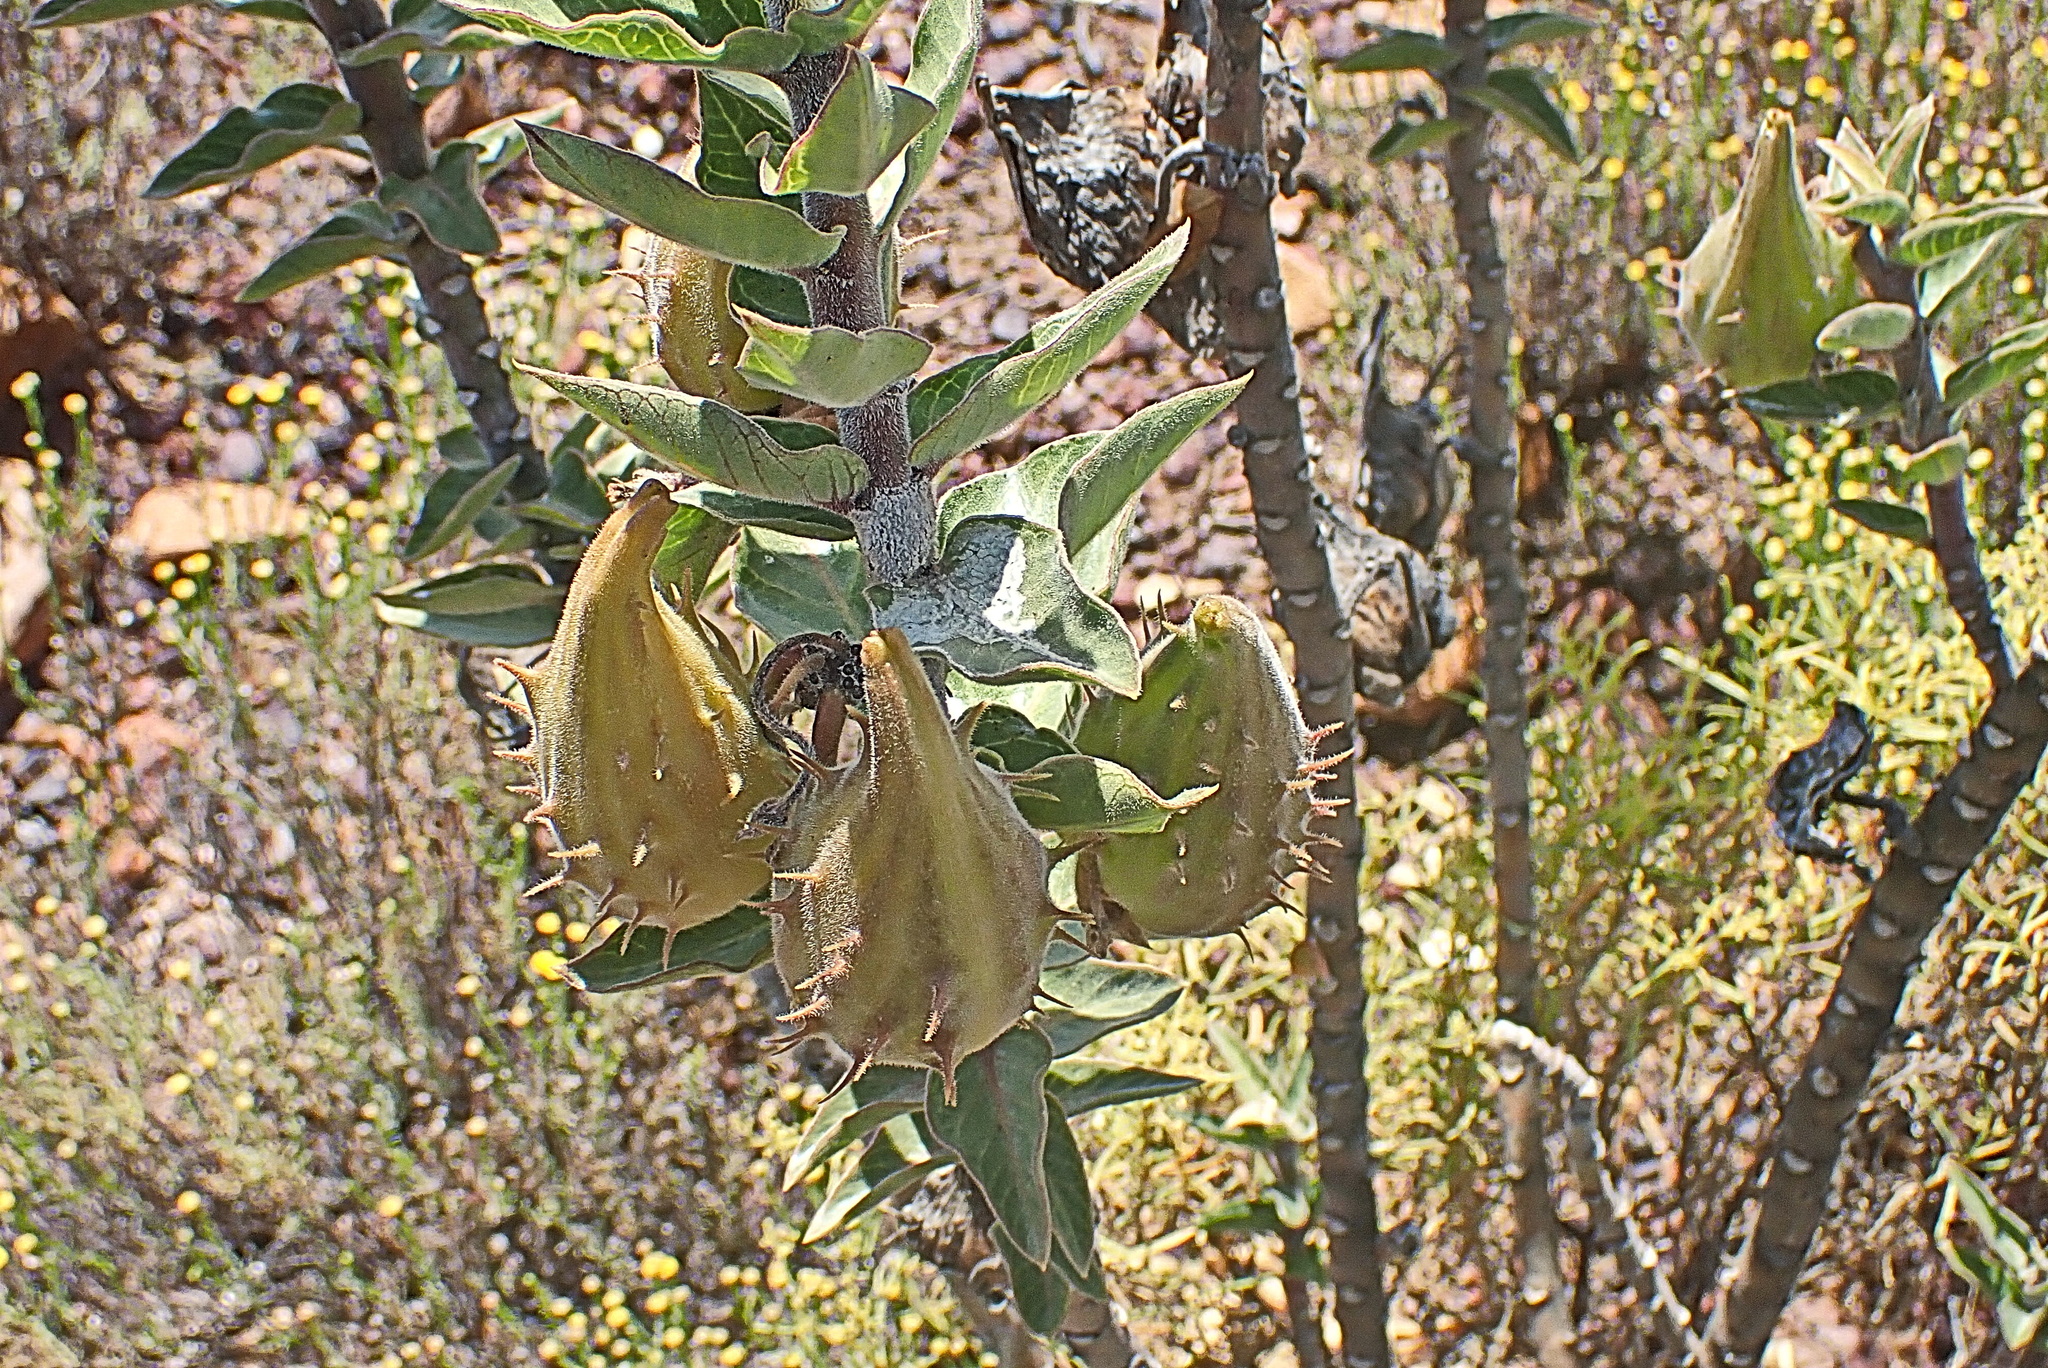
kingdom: Plantae
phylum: Tracheophyta
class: Magnoliopsida
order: Gentianales
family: Apocynaceae
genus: Gomphocarpus
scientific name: Gomphocarpus cancellatus
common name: Wild cotton
